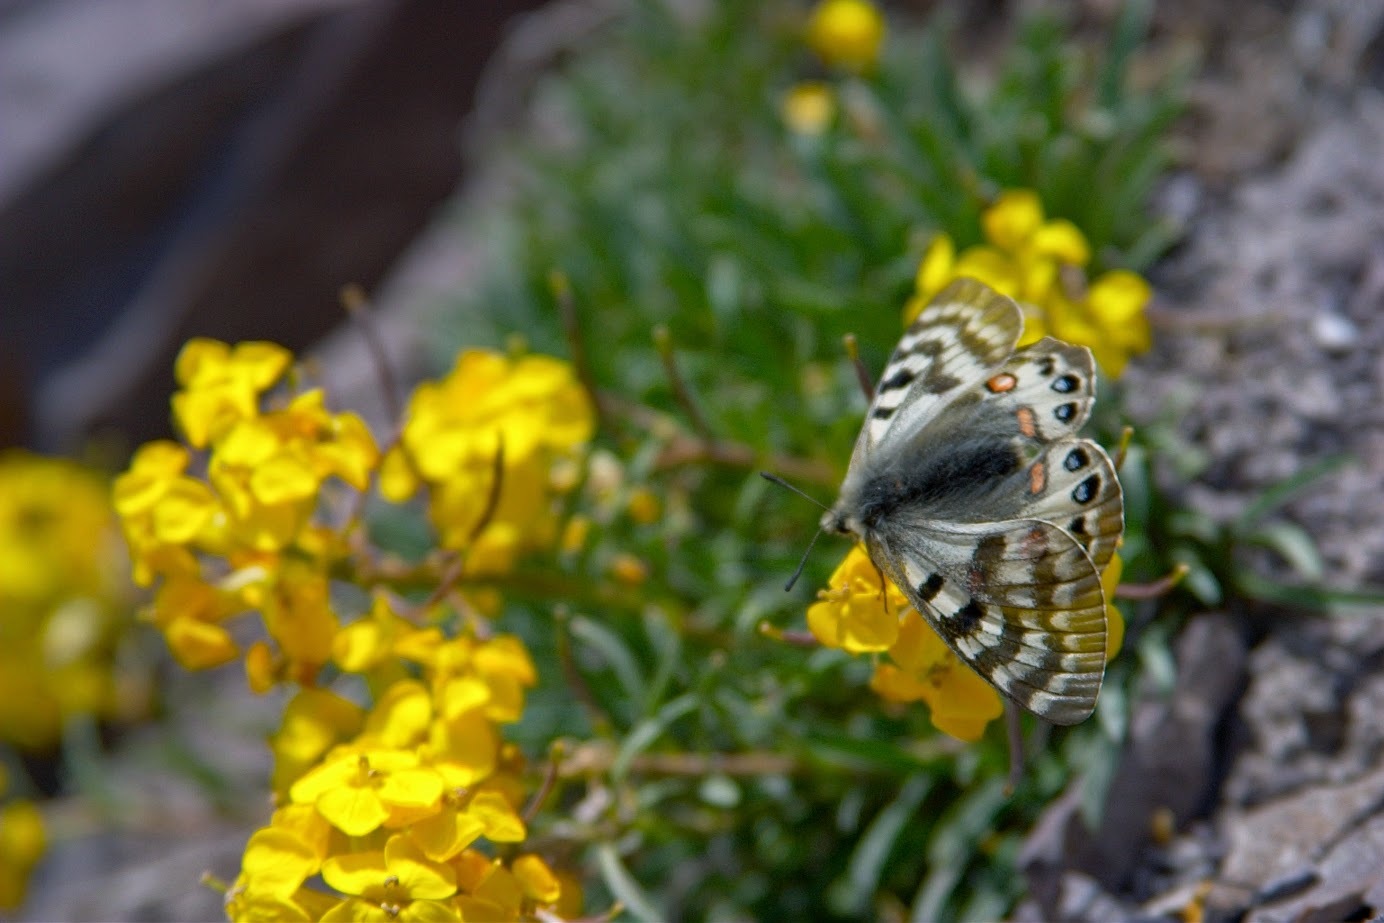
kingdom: Animalia
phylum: Arthropoda
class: Insecta
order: Lepidoptera
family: Papilionidae
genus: Parnassius
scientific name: Parnassius delphius
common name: Banded apollo
